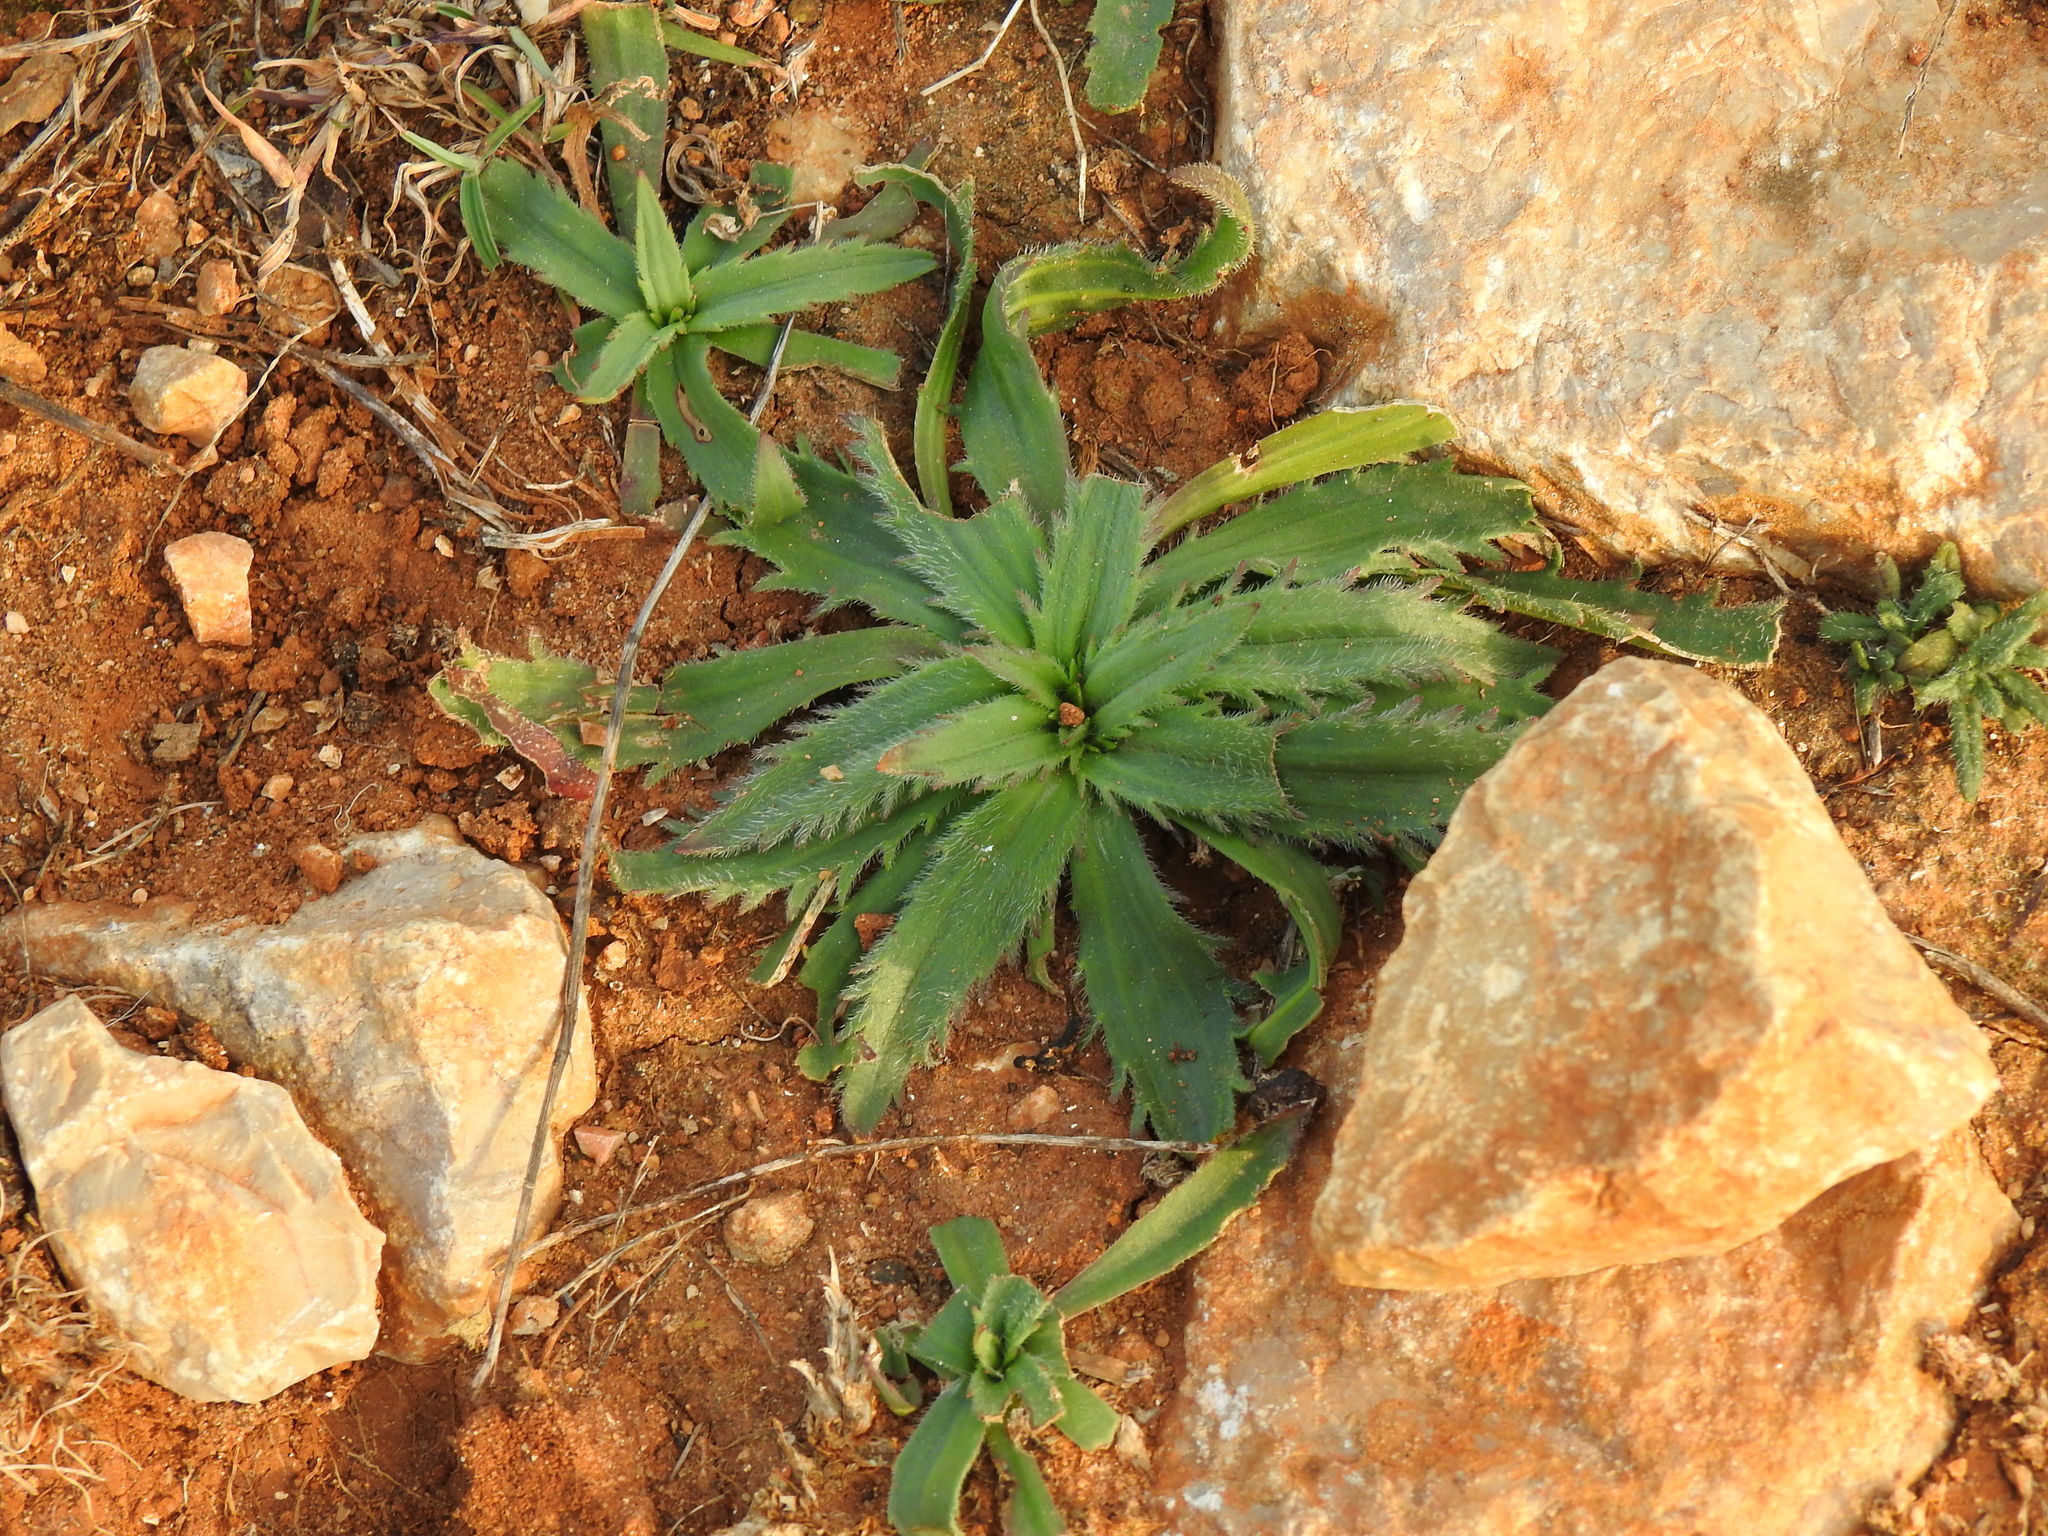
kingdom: Plantae
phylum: Tracheophyta
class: Magnoliopsida
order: Lamiales
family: Plantaginaceae
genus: Plantago
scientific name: Plantago serraria
